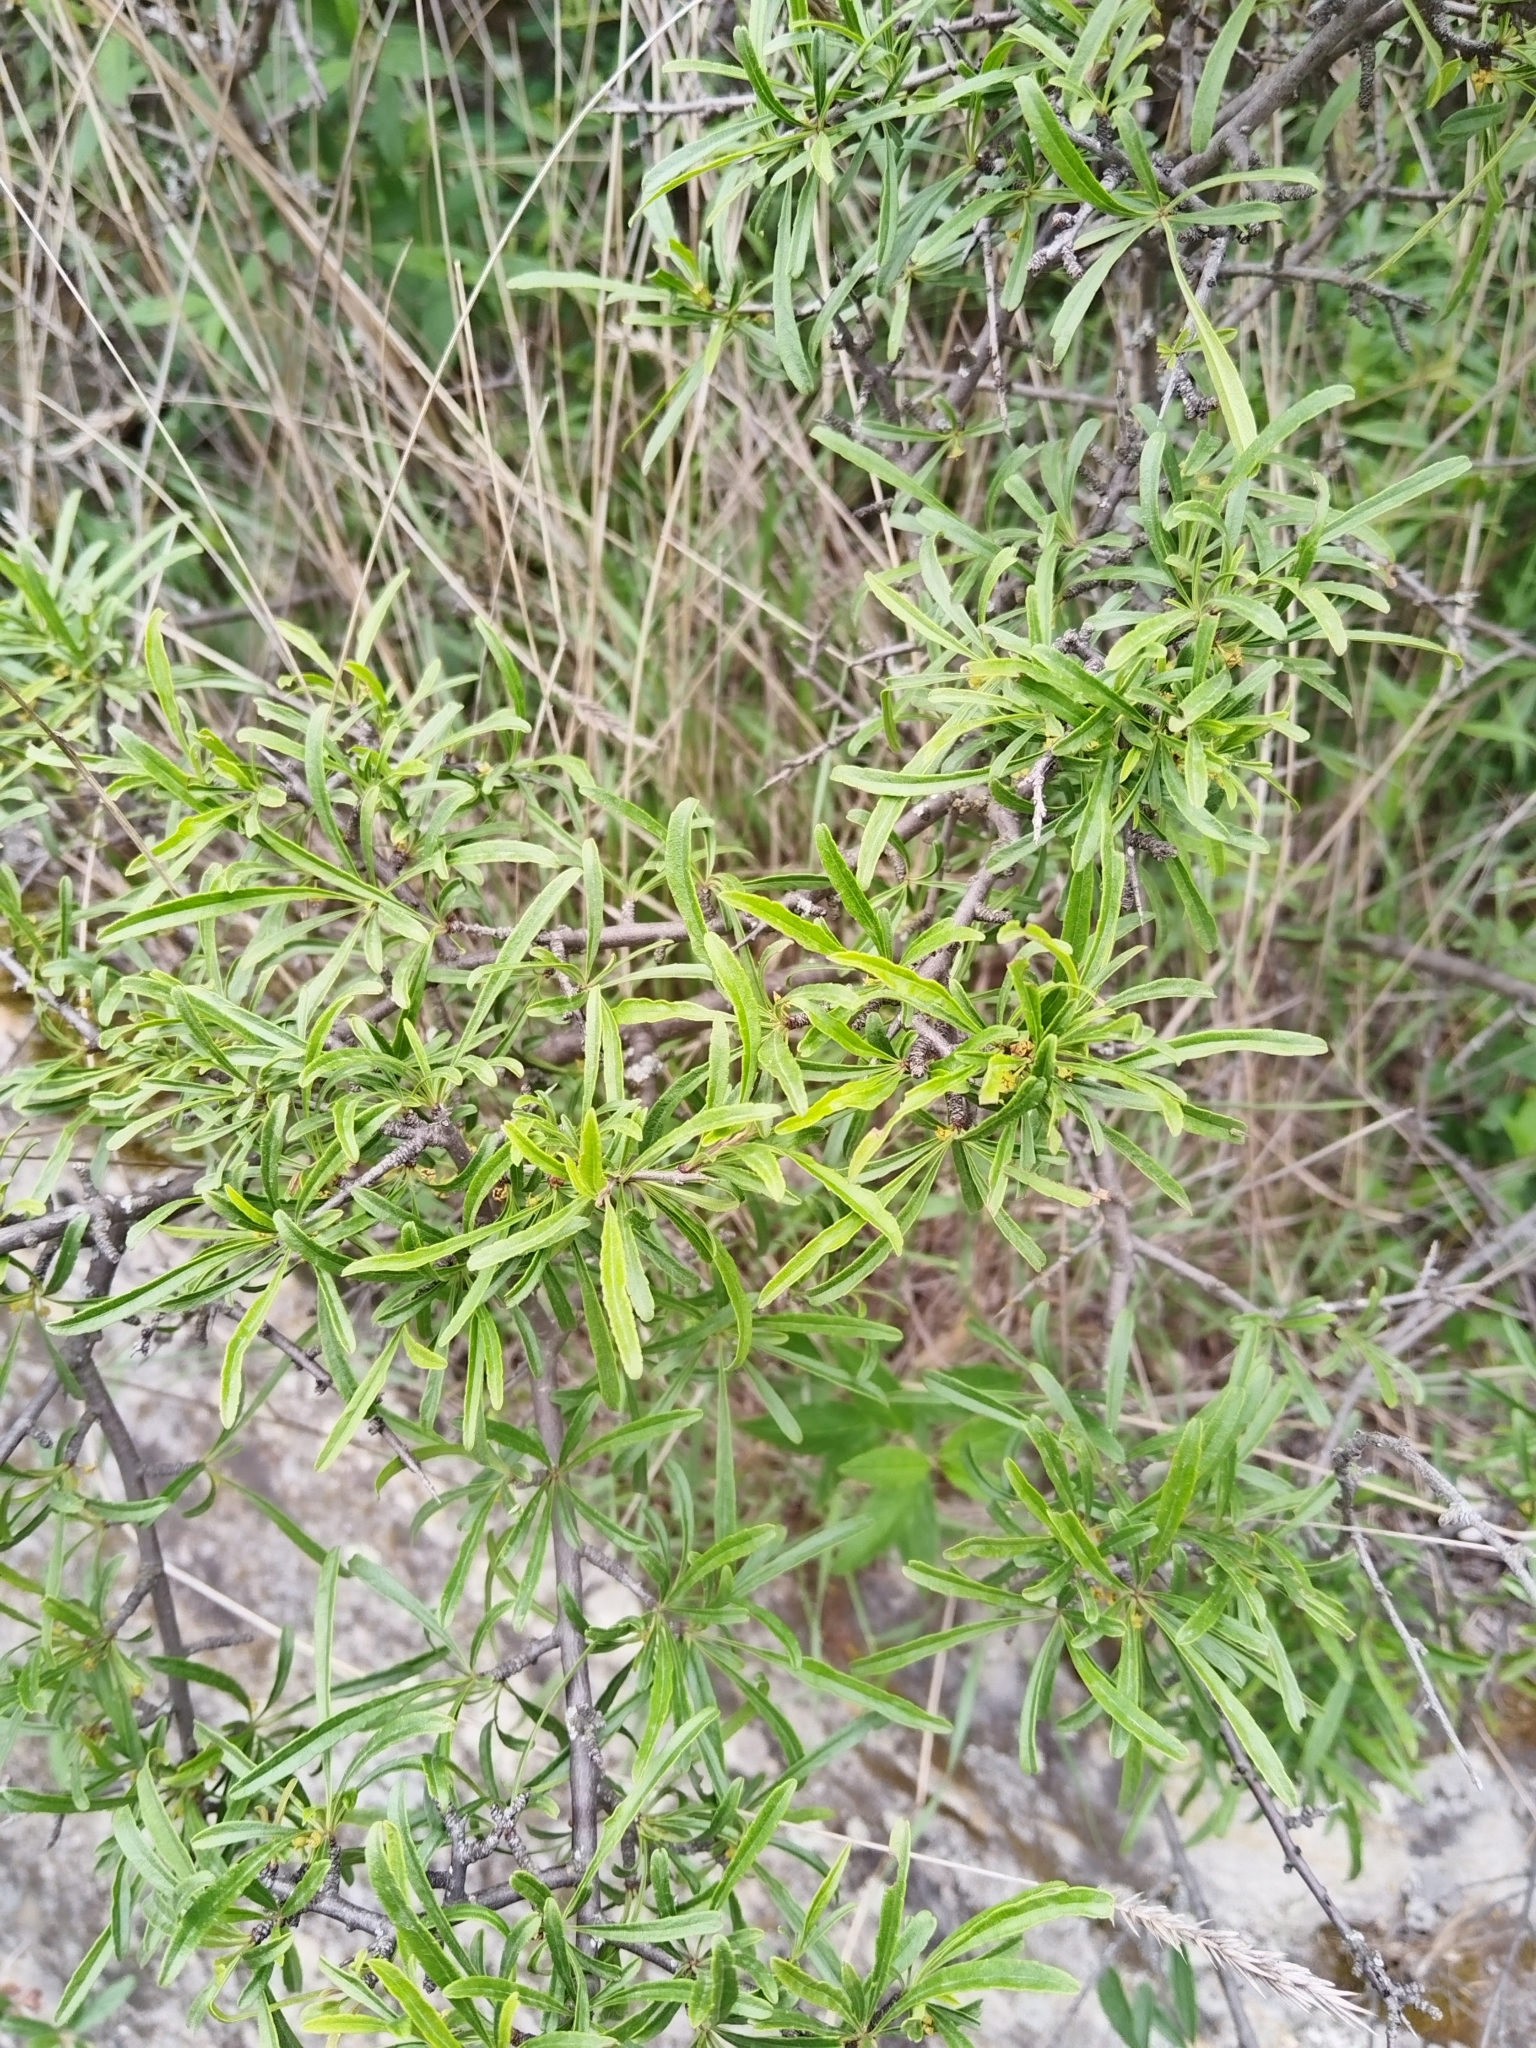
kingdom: Plantae
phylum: Tracheophyta
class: Magnoliopsida
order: Rosales
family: Rhamnaceae
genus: Rhamnus
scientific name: Rhamnus erythroxyloides
